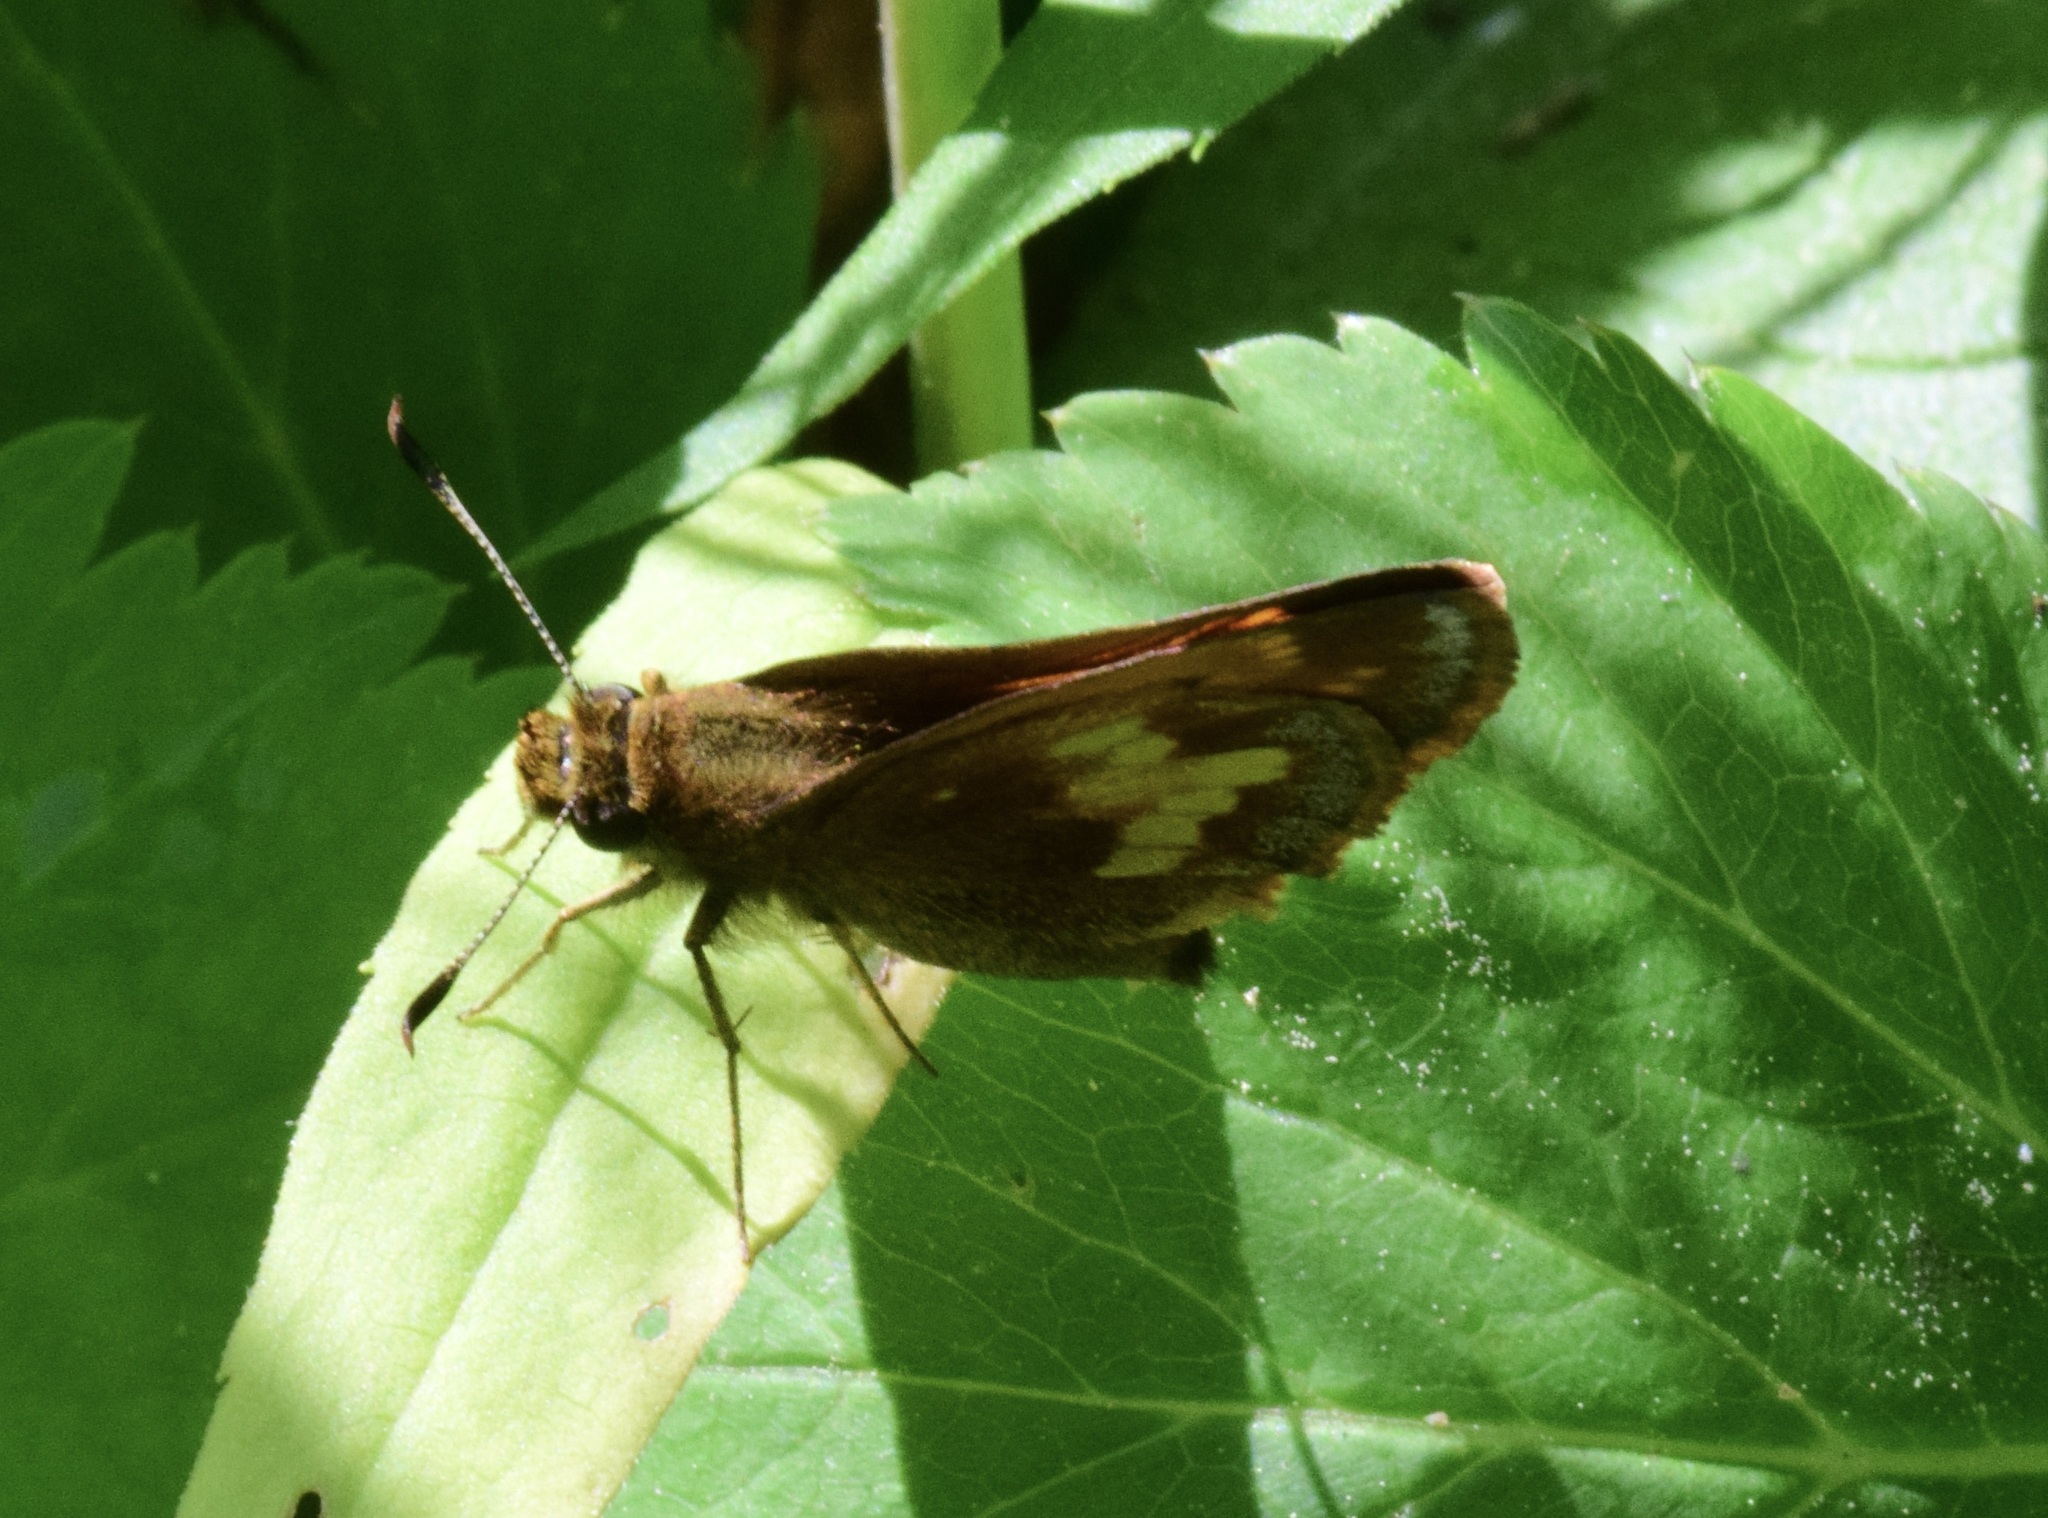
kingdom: Animalia
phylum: Arthropoda
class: Insecta
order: Lepidoptera
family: Hesperiidae
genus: Lon
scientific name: Lon hobomok
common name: Hobomok skipper
